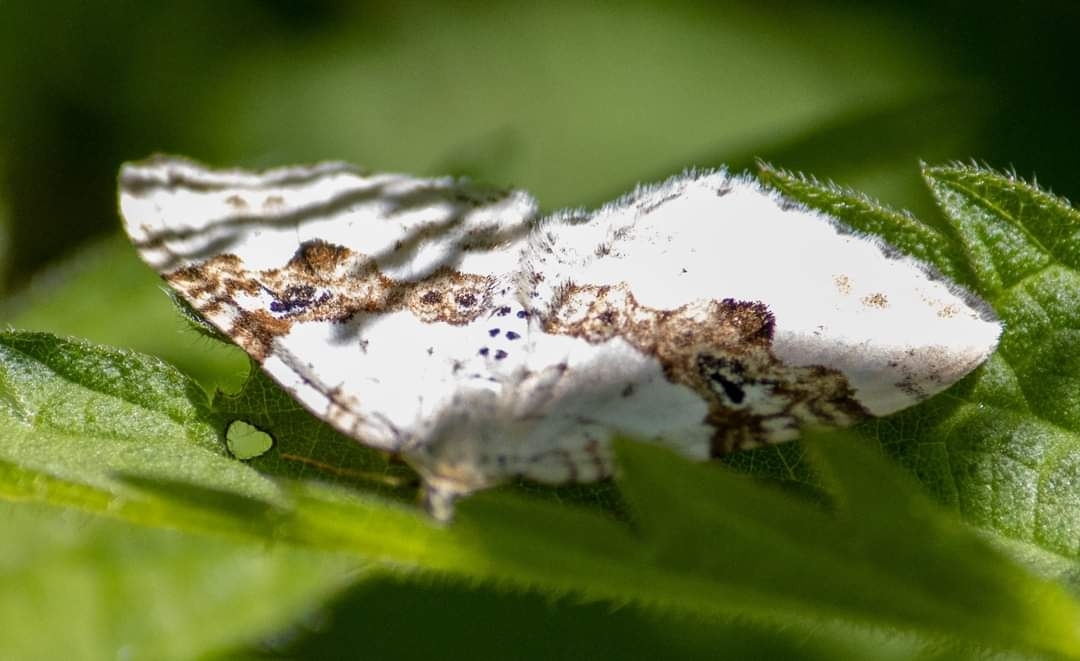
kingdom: Animalia
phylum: Arthropoda
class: Insecta
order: Lepidoptera
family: Geometridae
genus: Xanthorhoe
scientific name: Xanthorhoe montanata
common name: Silver-ground carpet
